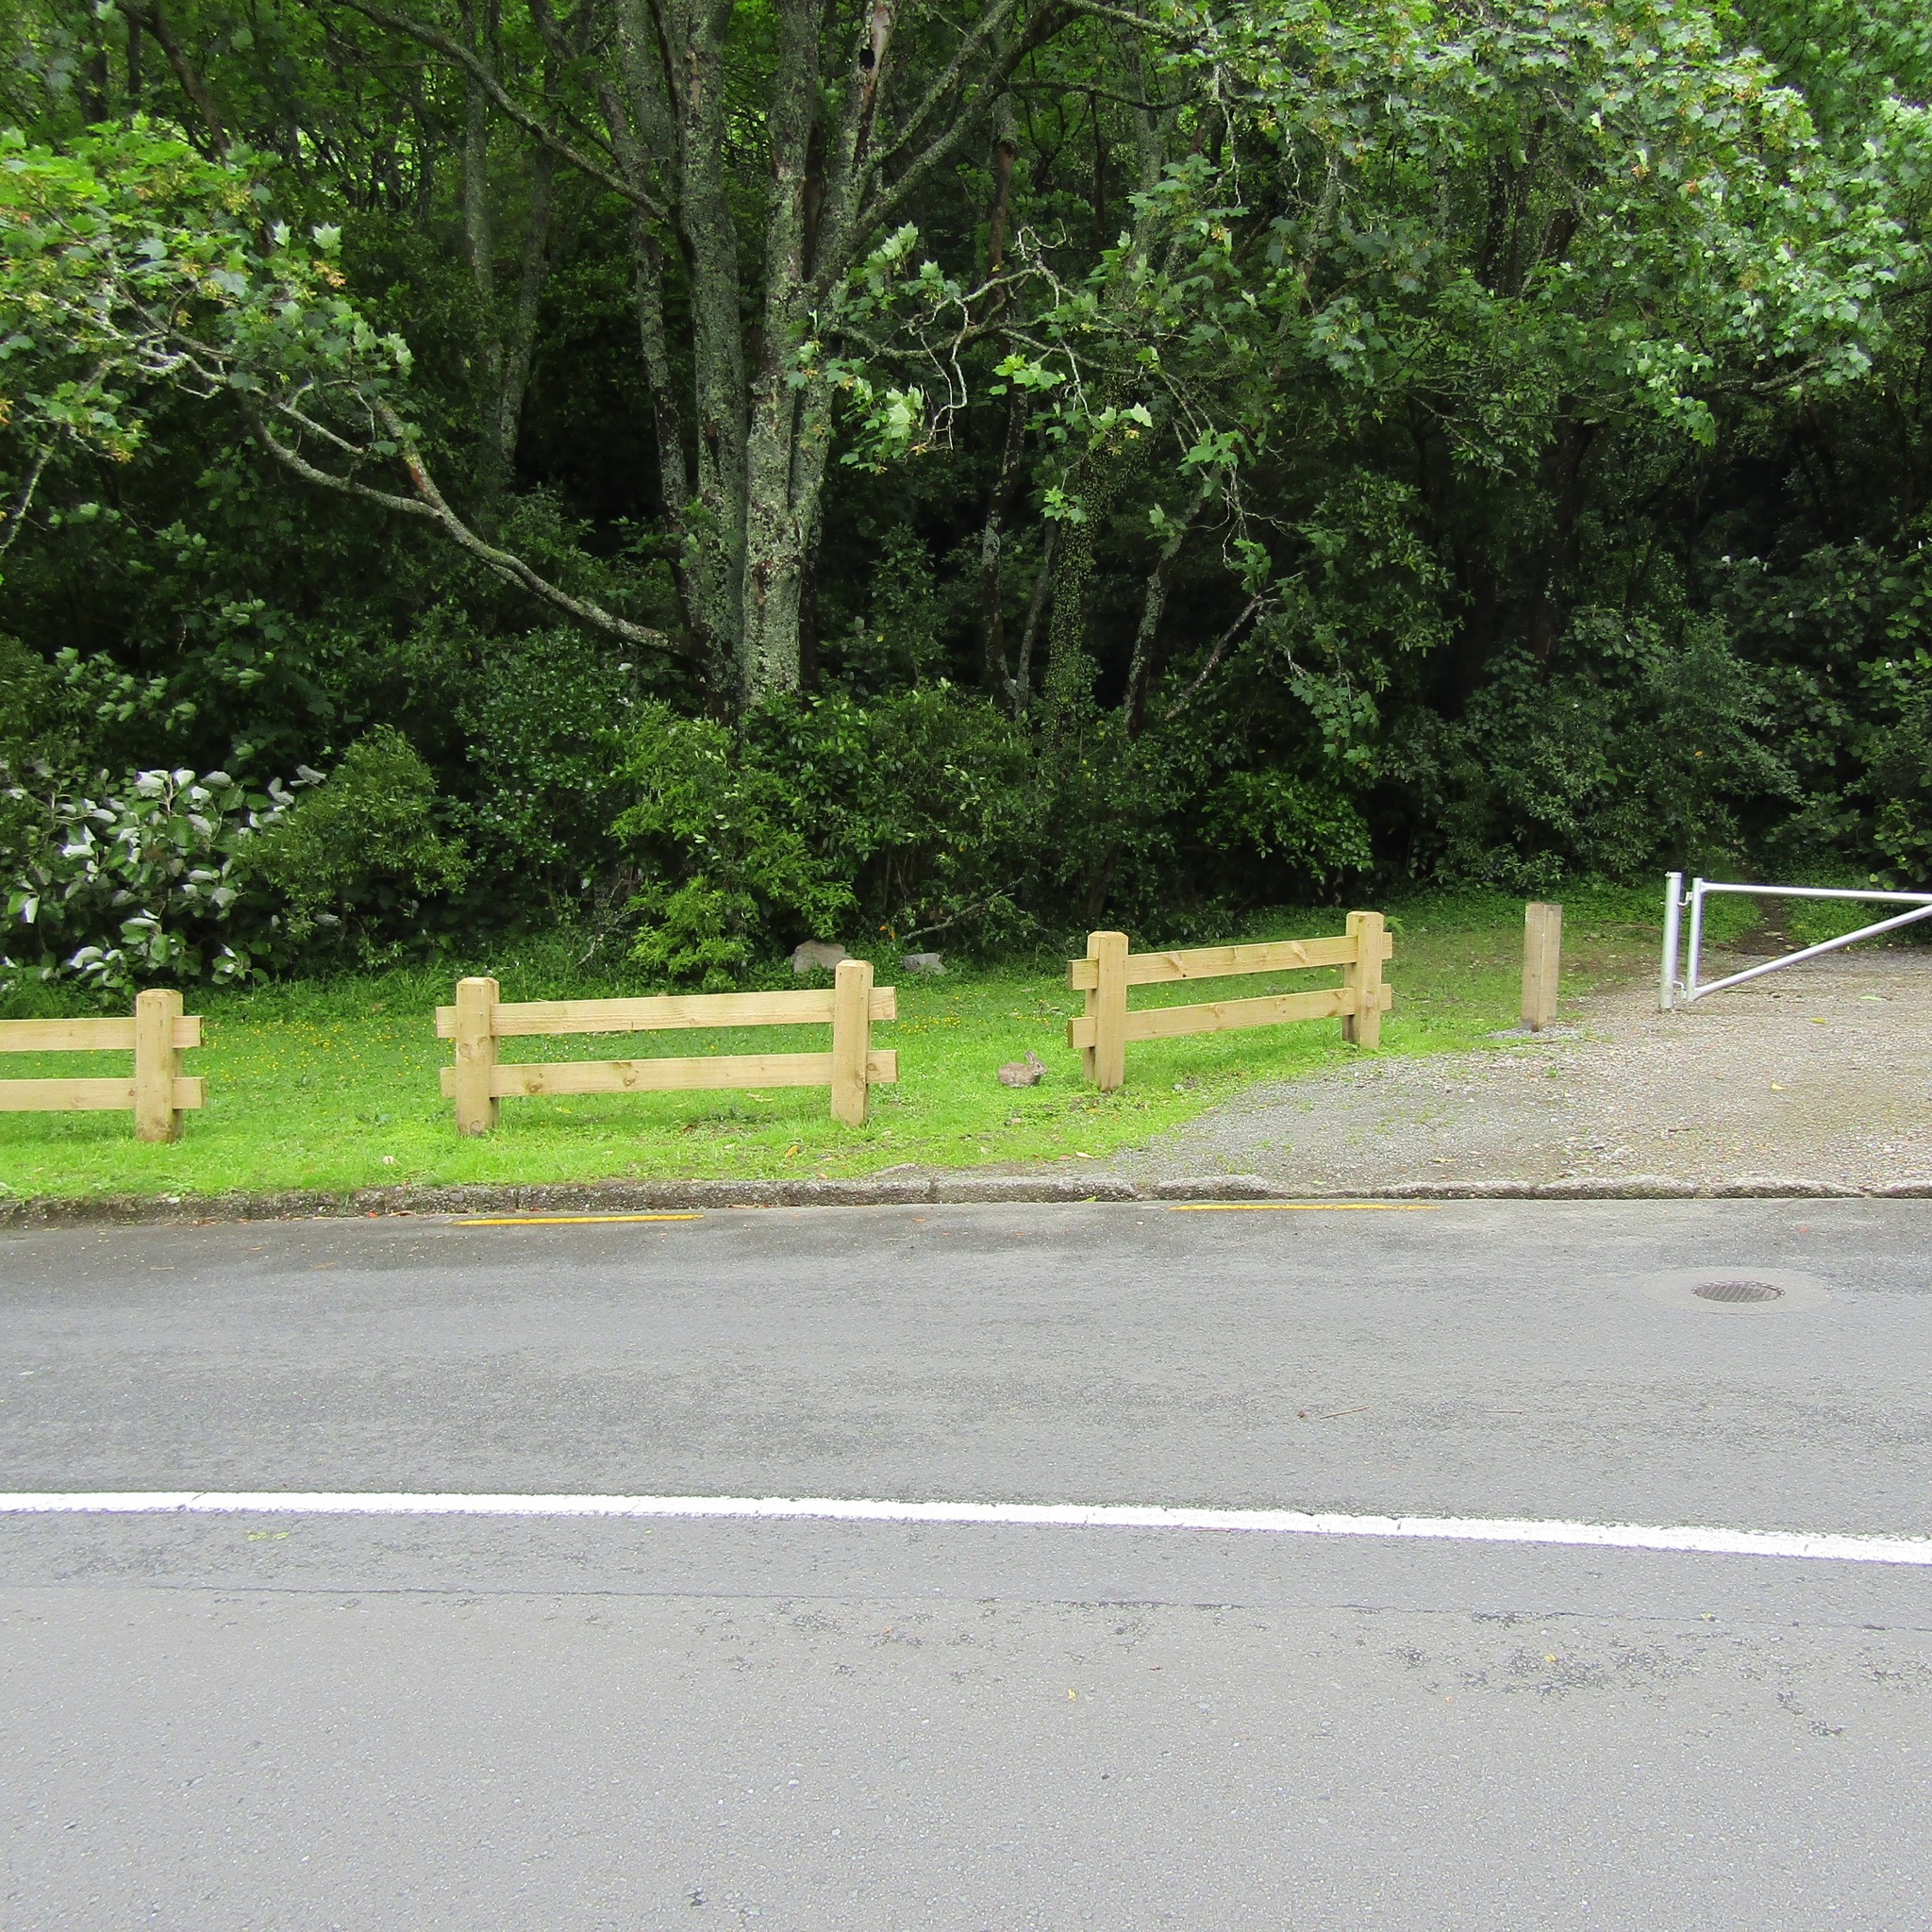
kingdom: Animalia
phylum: Chordata
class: Mammalia
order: Lagomorpha
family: Leporidae
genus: Oryctolagus
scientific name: Oryctolagus cuniculus
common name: European rabbit
